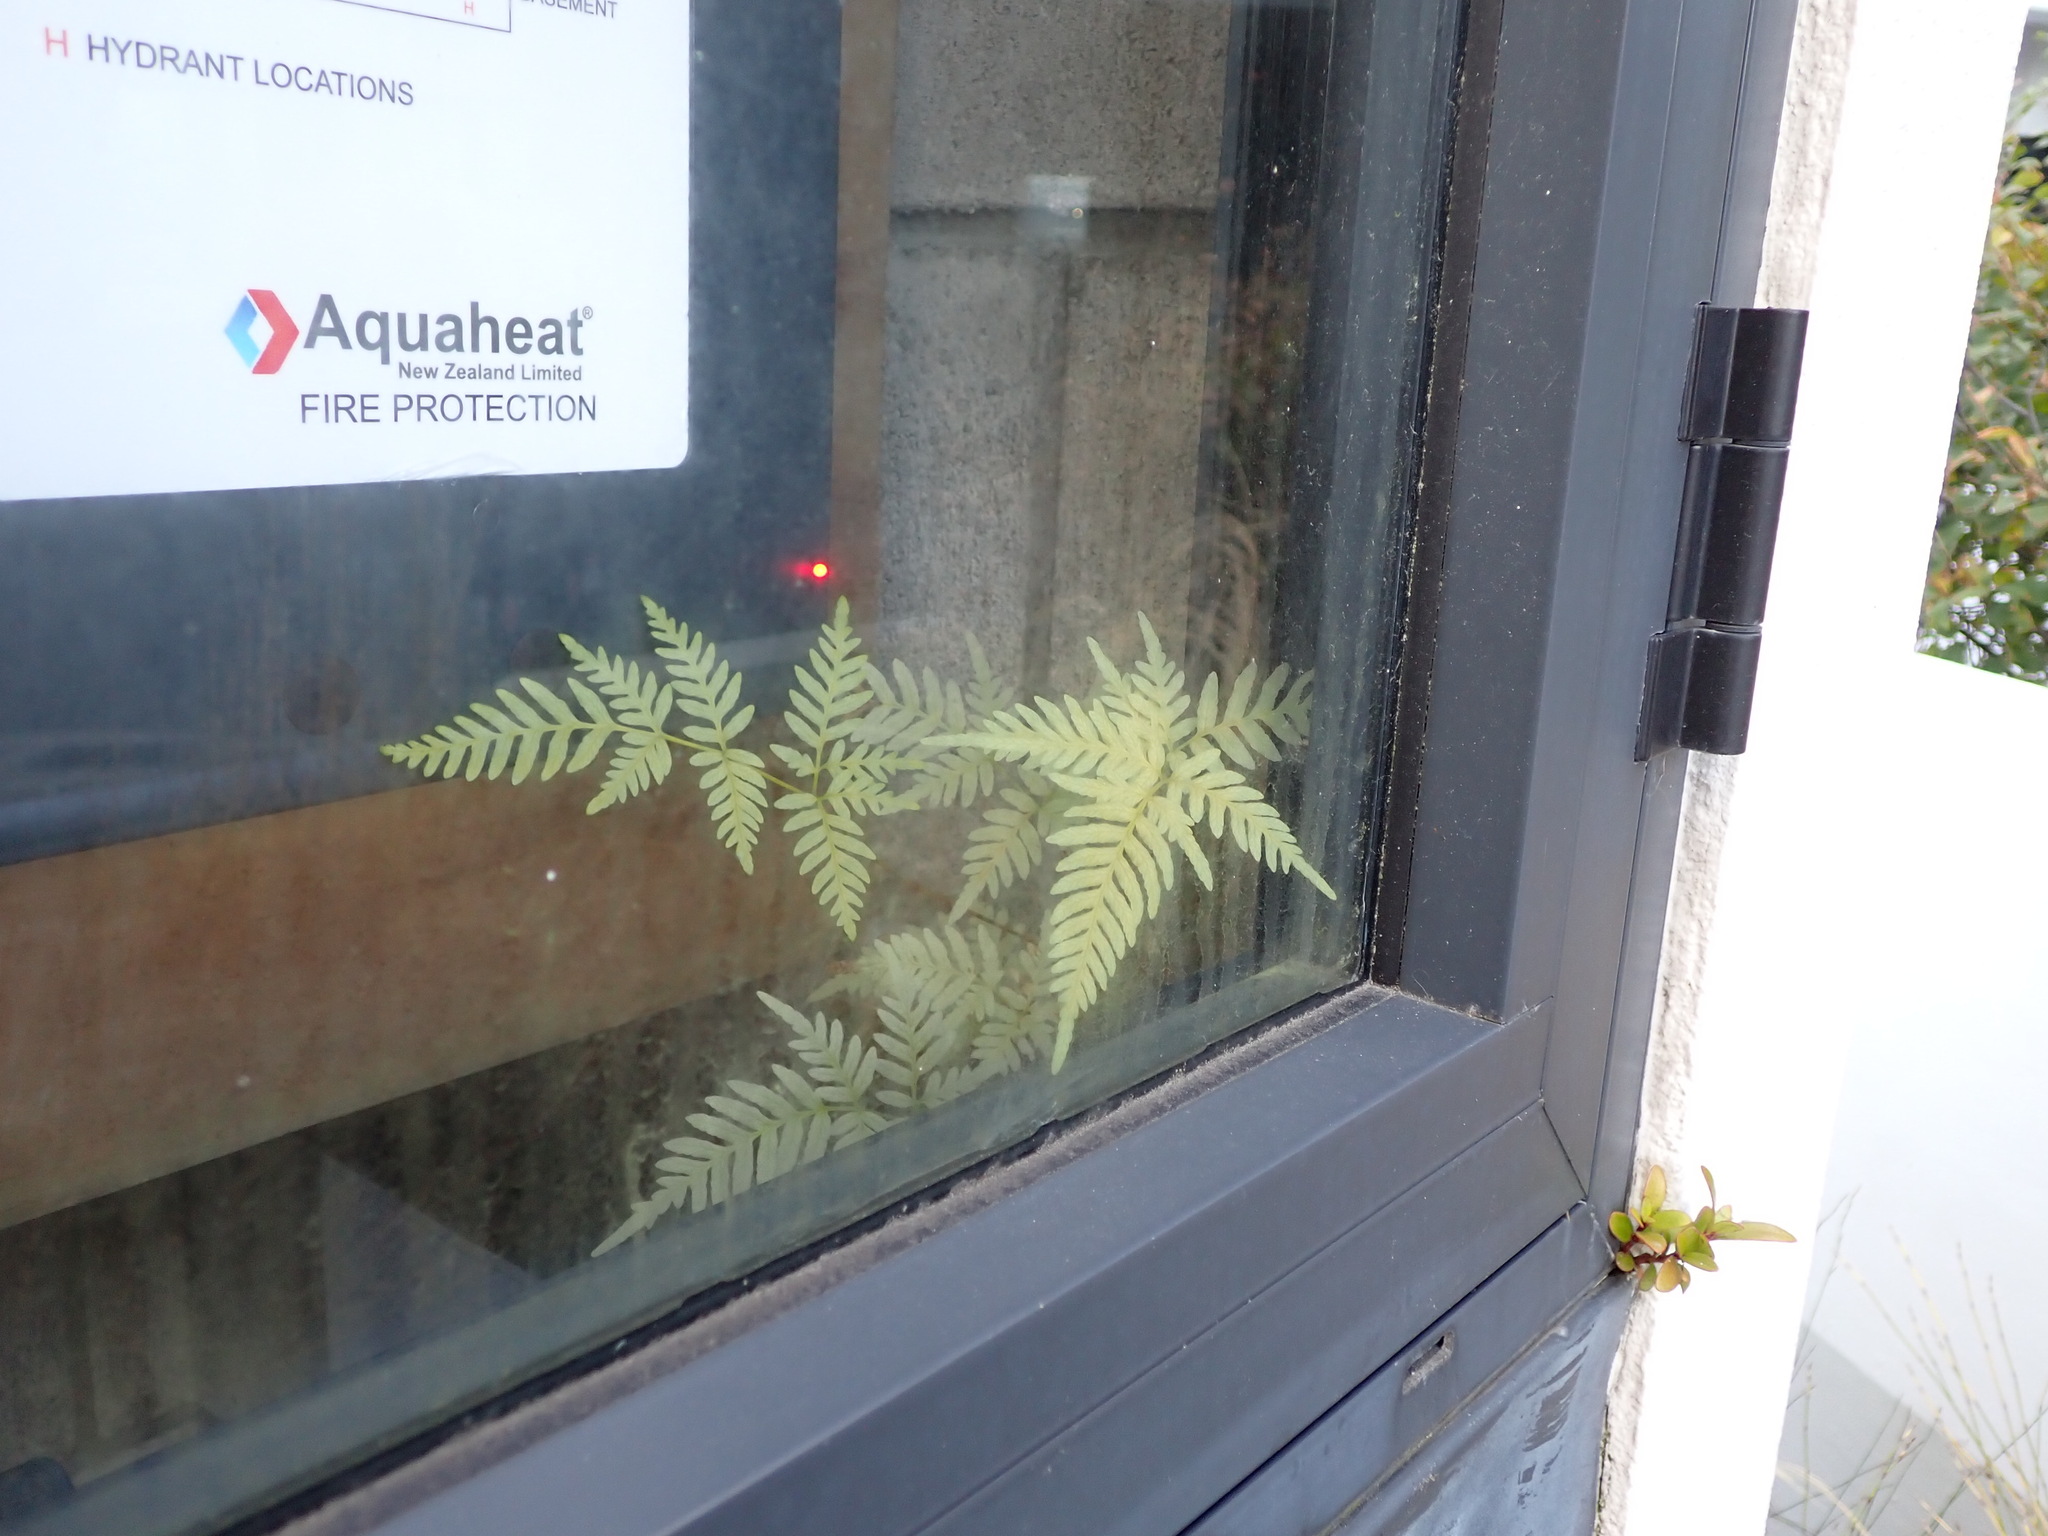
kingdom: Plantae
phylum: Tracheophyta
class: Polypodiopsida
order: Polypodiales
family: Pteridaceae
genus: Pteris
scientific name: Pteris tremula
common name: Australian brake
